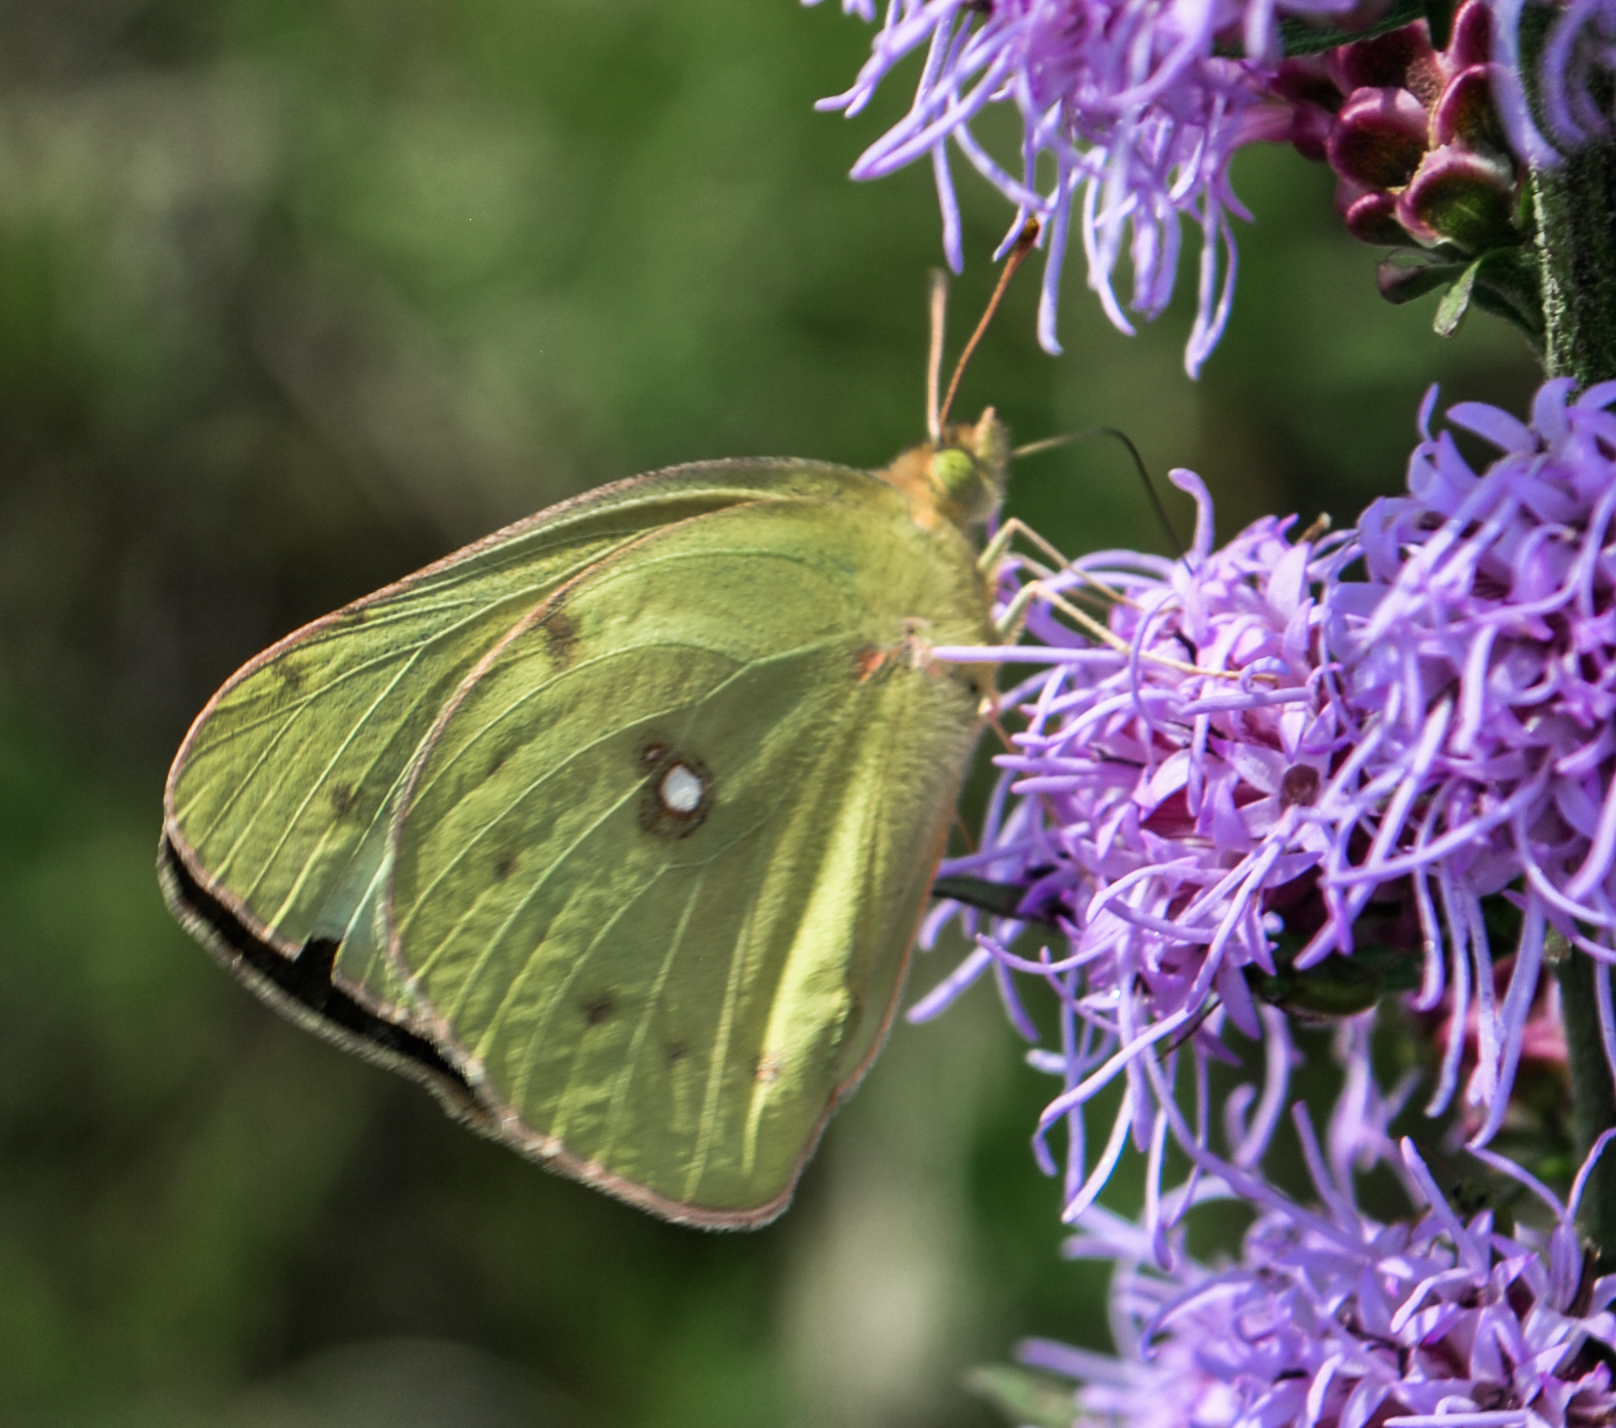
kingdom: Animalia
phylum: Arthropoda
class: Insecta
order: Lepidoptera
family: Pieridae
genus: Colias
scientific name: Colias eurytheme
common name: Alfalfa butterfly
